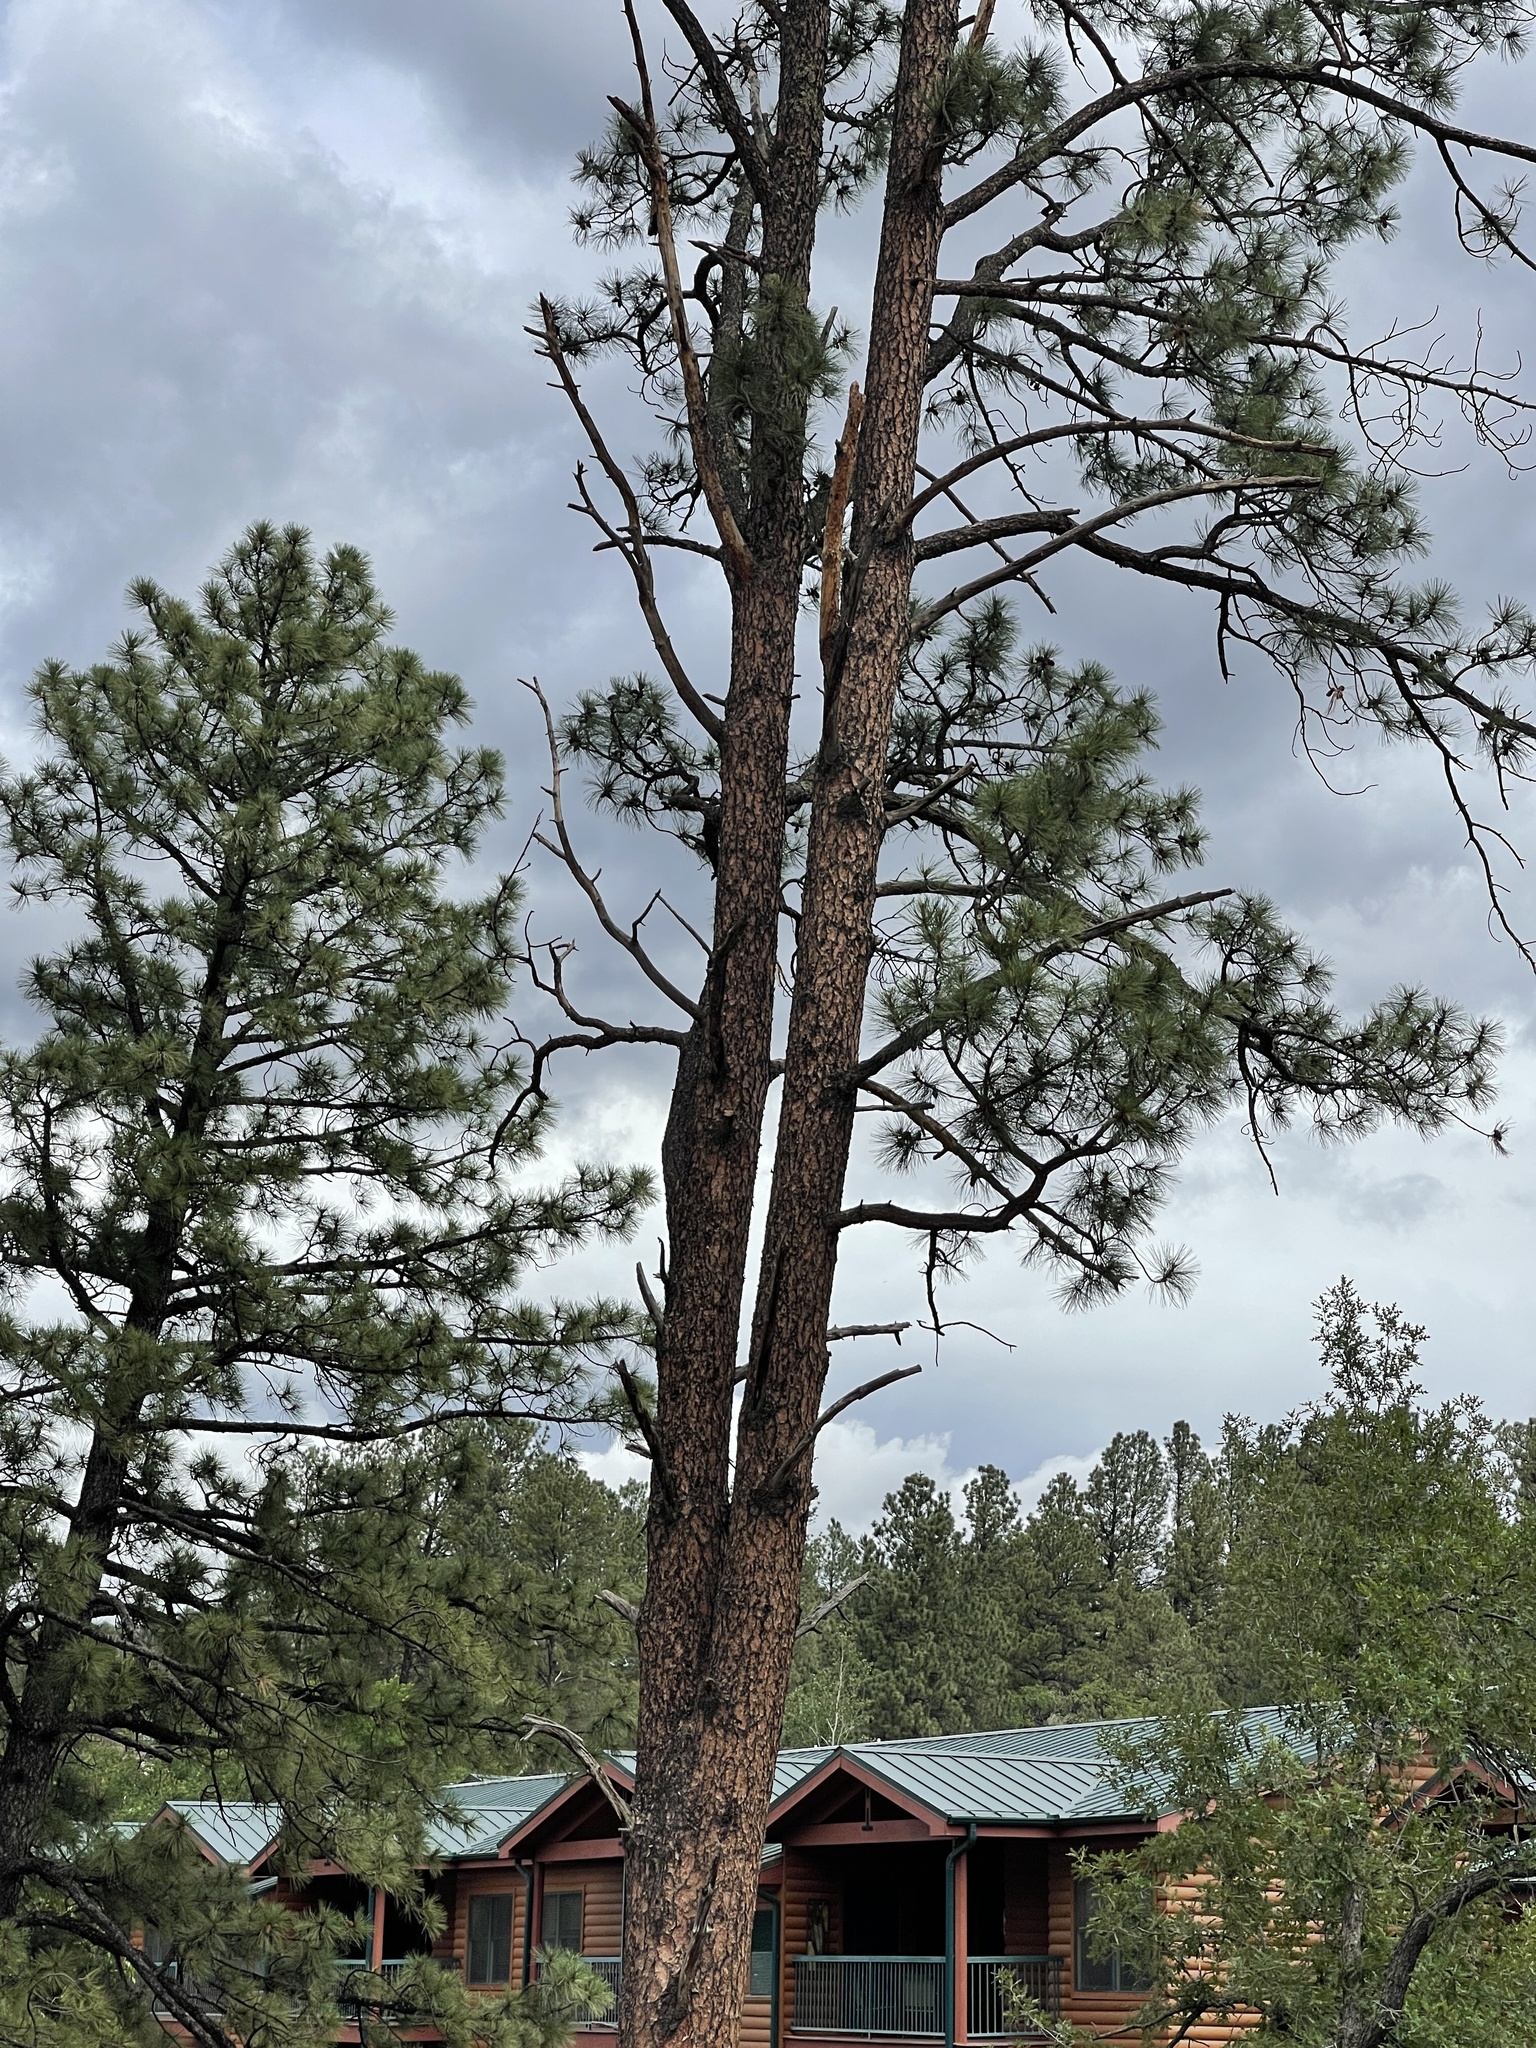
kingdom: Plantae
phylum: Tracheophyta
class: Pinopsida
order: Pinales
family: Pinaceae
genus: Pinus
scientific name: Pinus ponderosa
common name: Western yellow-pine
